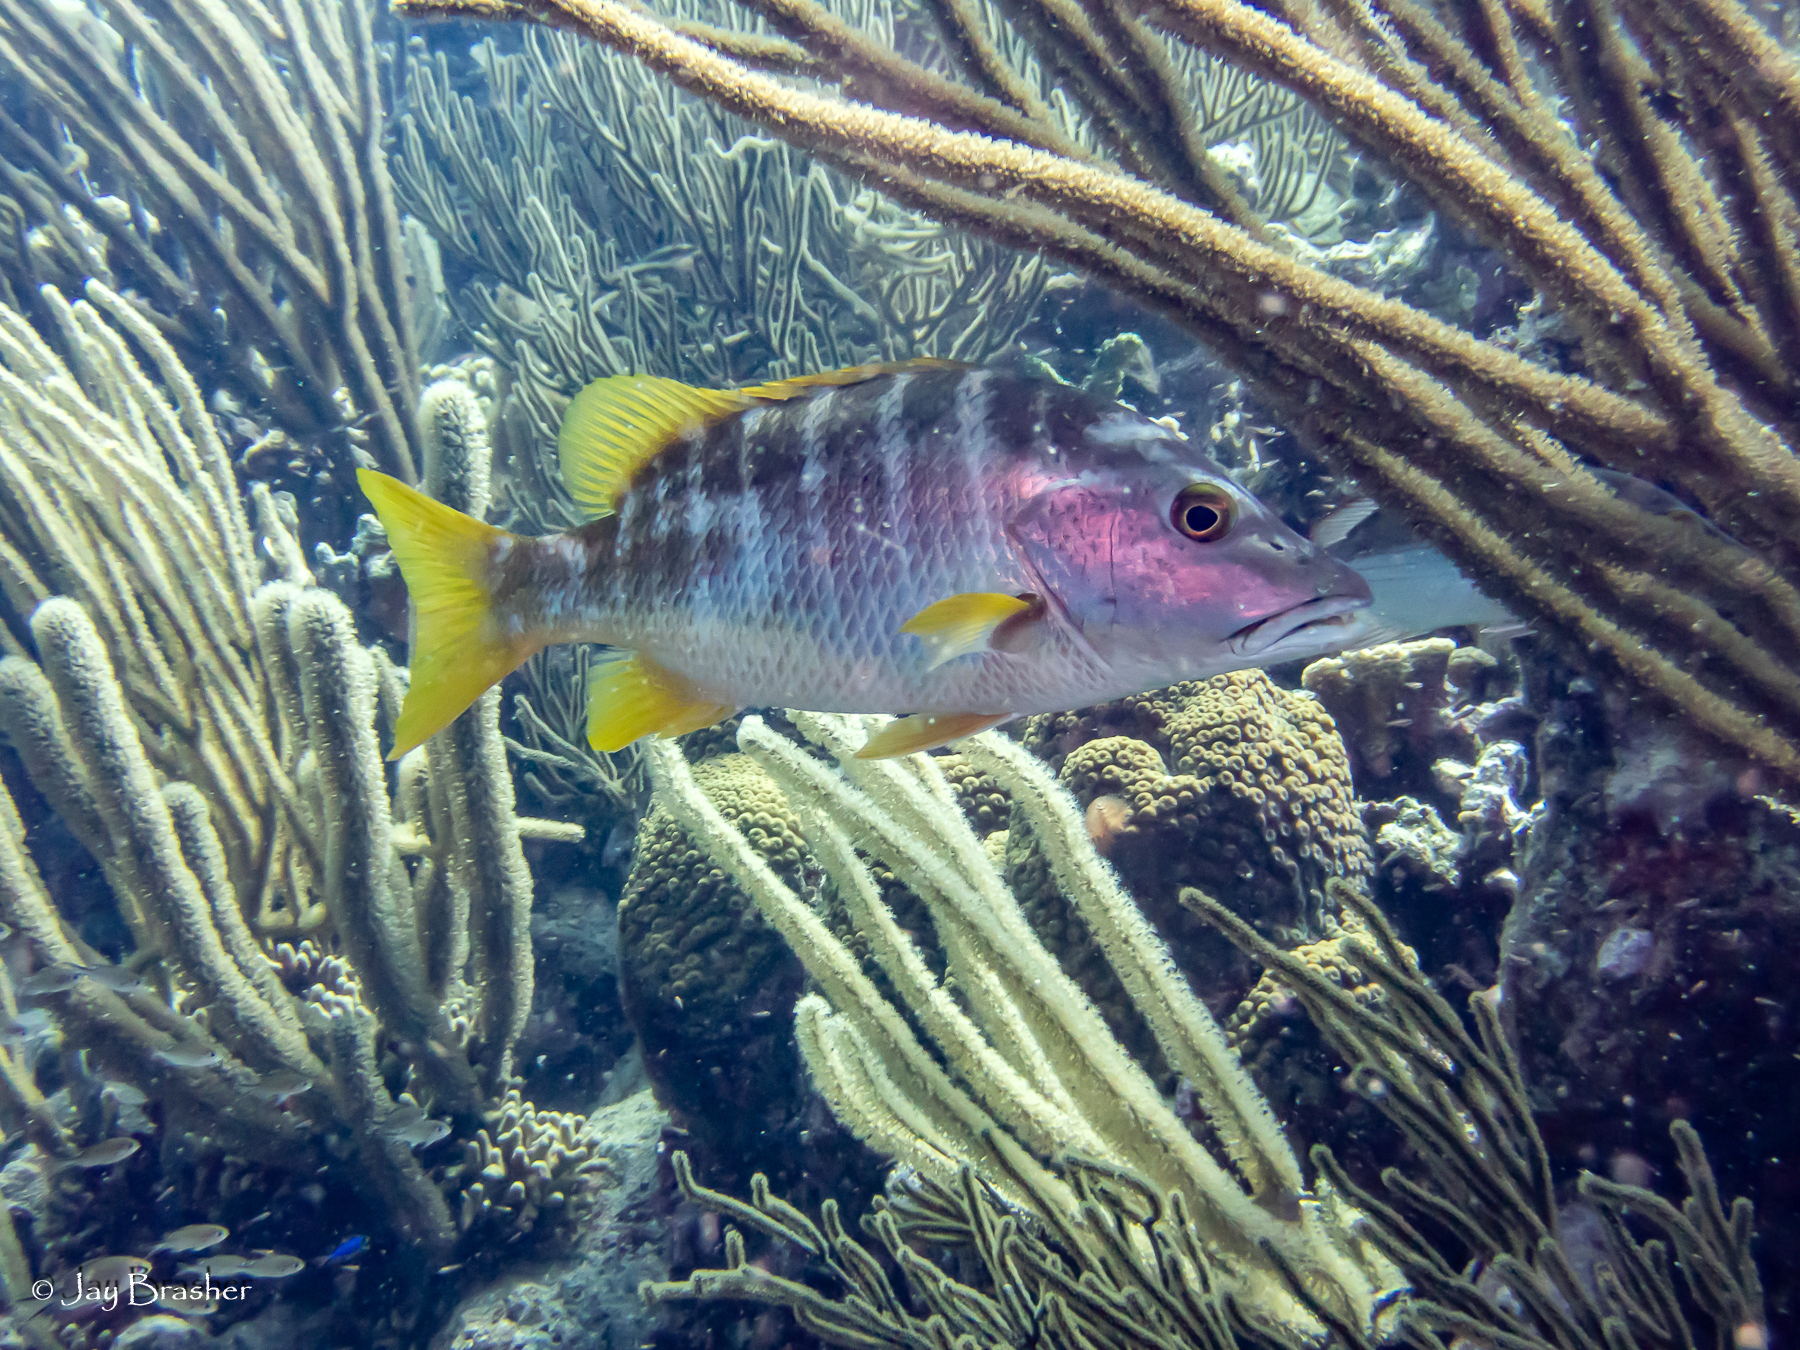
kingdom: Animalia
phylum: Chordata
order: Perciformes
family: Lutjanidae
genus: Lutjanus
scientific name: Lutjanus apodus
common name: Schoolmaster
